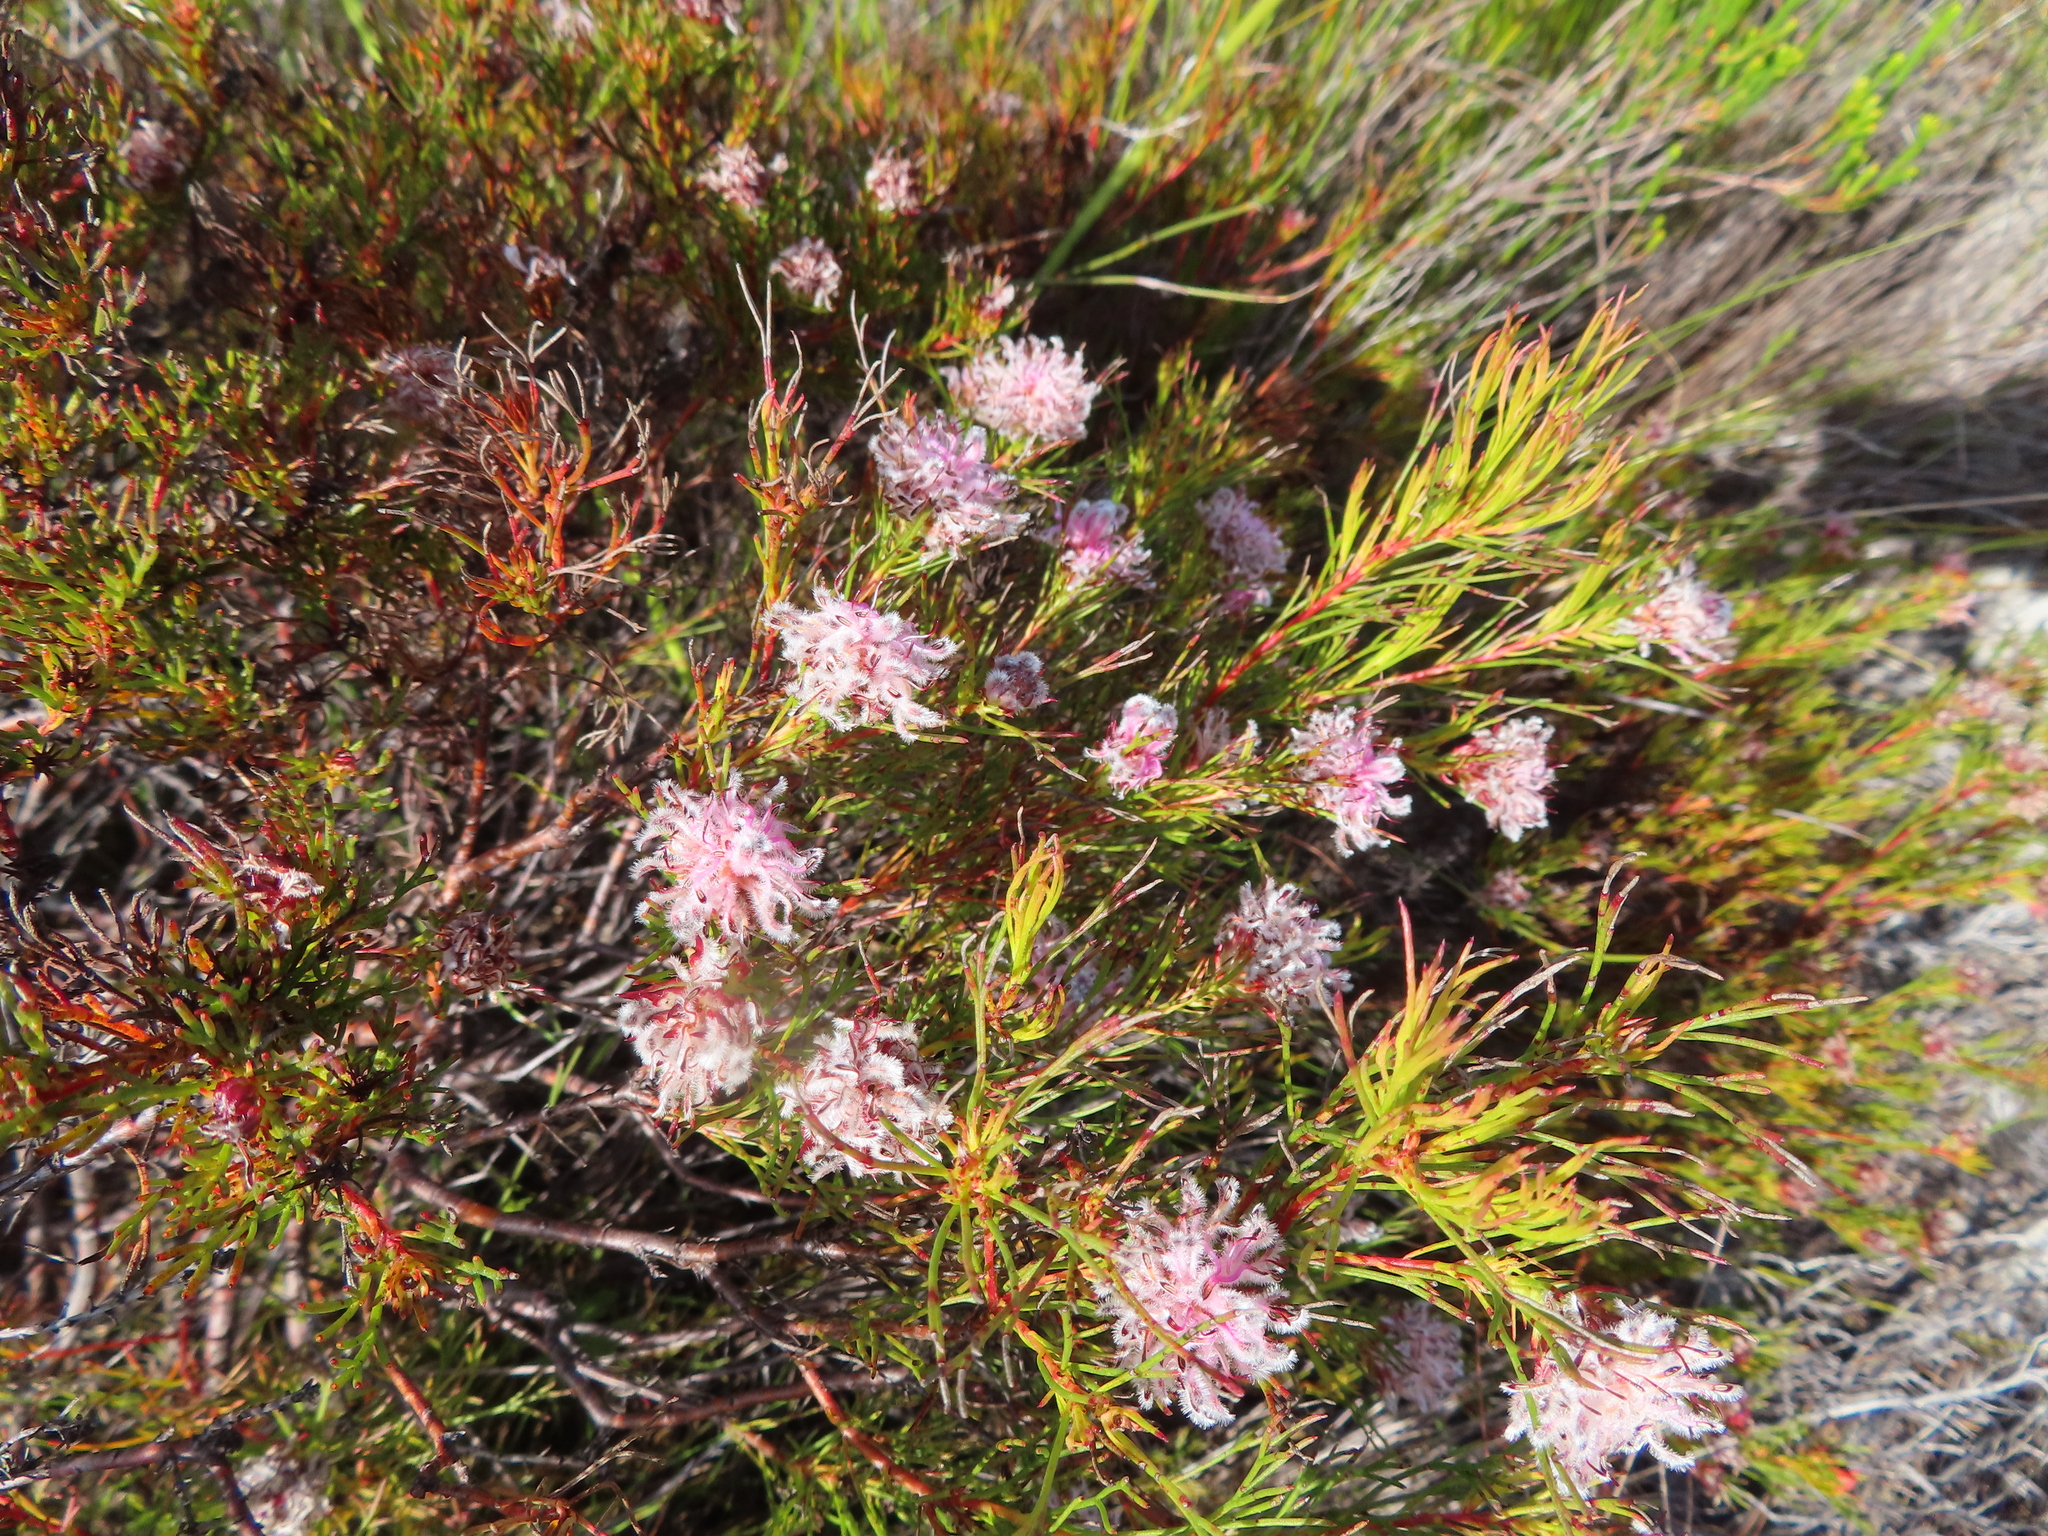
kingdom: Plantae
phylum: Tracheophyta
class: Magnoliopsida
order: Proteales
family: Proteaceae
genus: Serruria
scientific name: Serruria nervosa
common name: Fluted spiderhead
